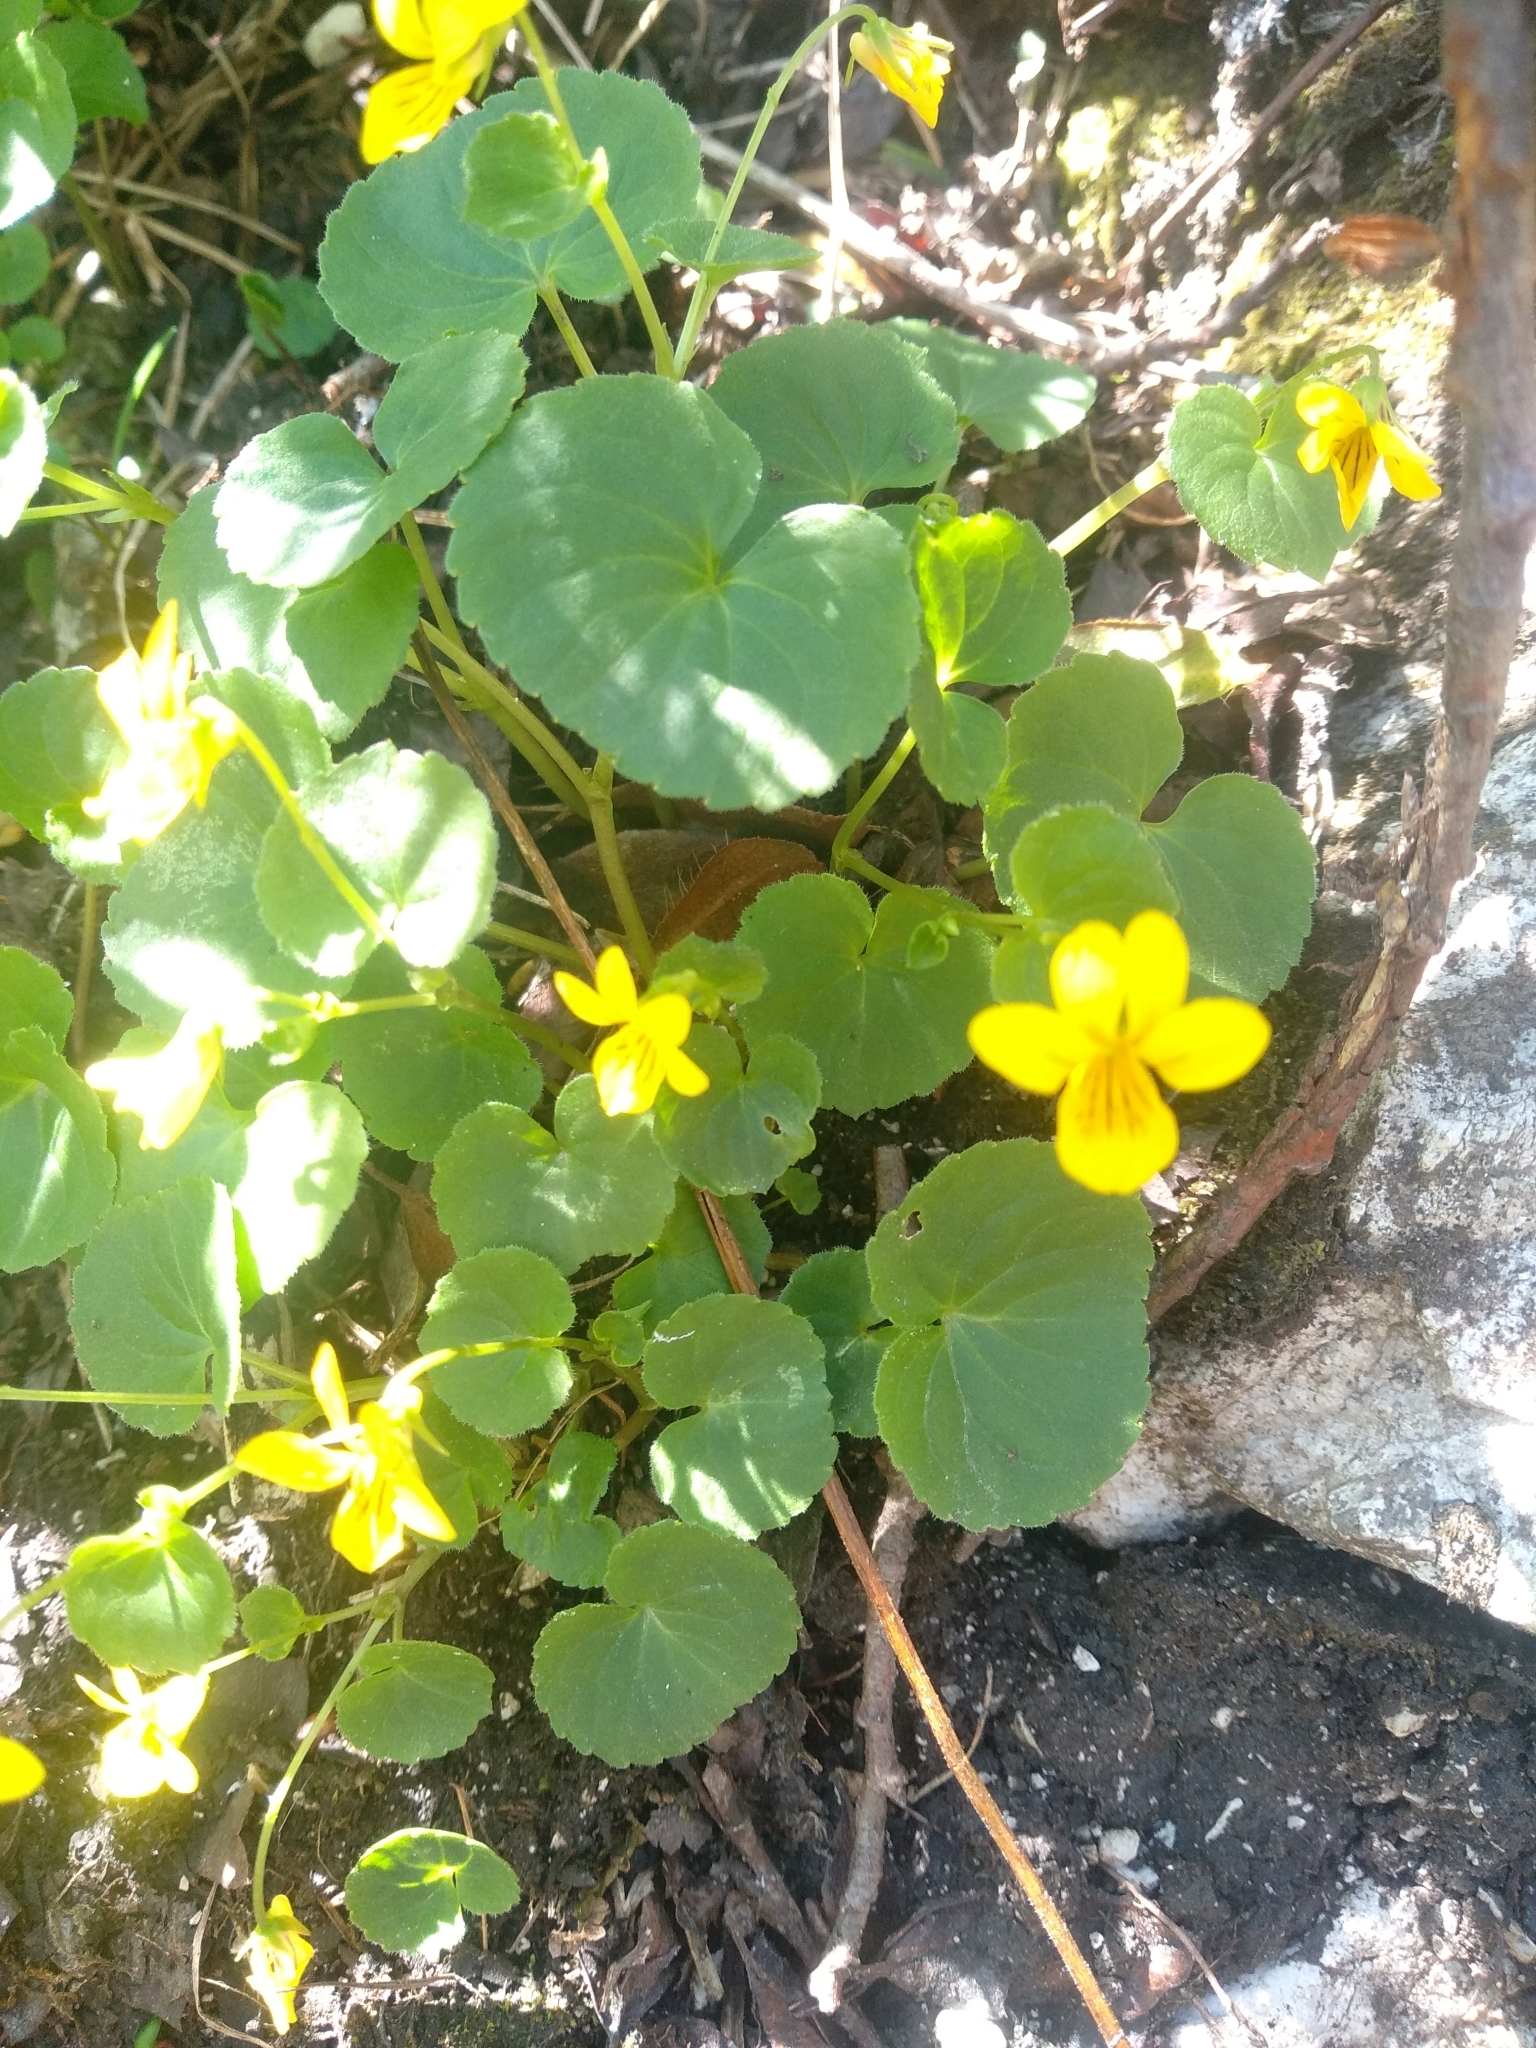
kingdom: Plantae
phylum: Tracheophyta
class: Magnoliopsida
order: Malpighiales
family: Violaceae
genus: Viola
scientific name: Viola biflora
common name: Alpine yellow violet
